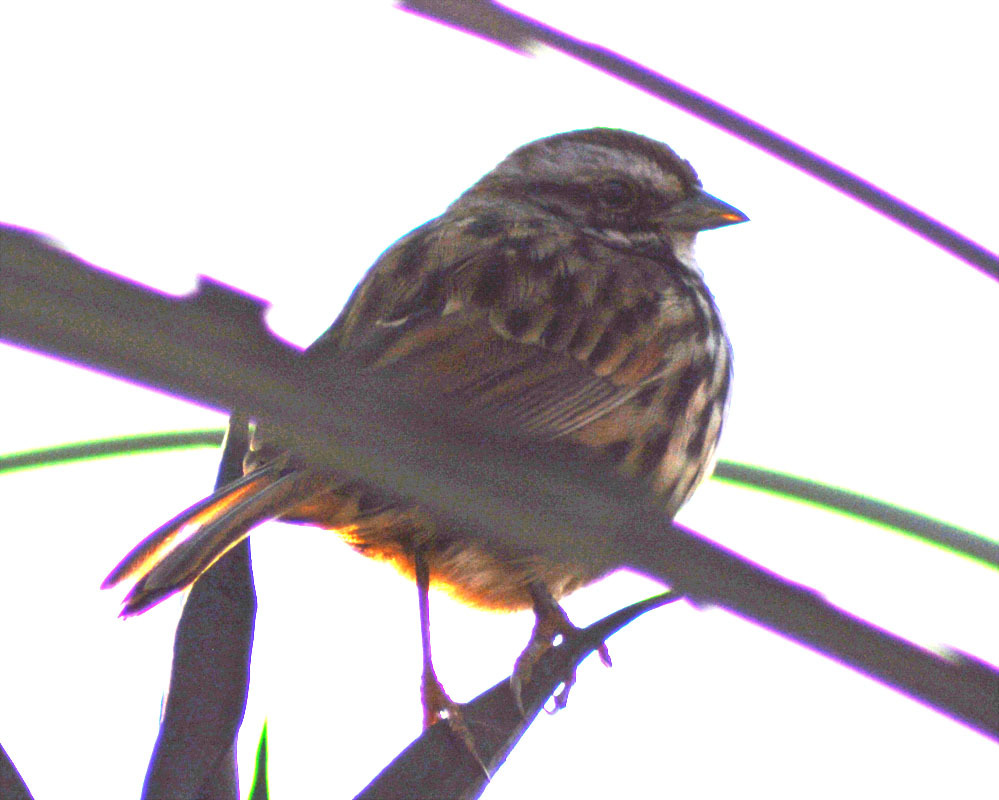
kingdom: Animalia
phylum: Chordata
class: Aves
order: Passeriformes
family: Passerellidae
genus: Melospiza
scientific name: Melospiza melodia
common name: Song sparrow
